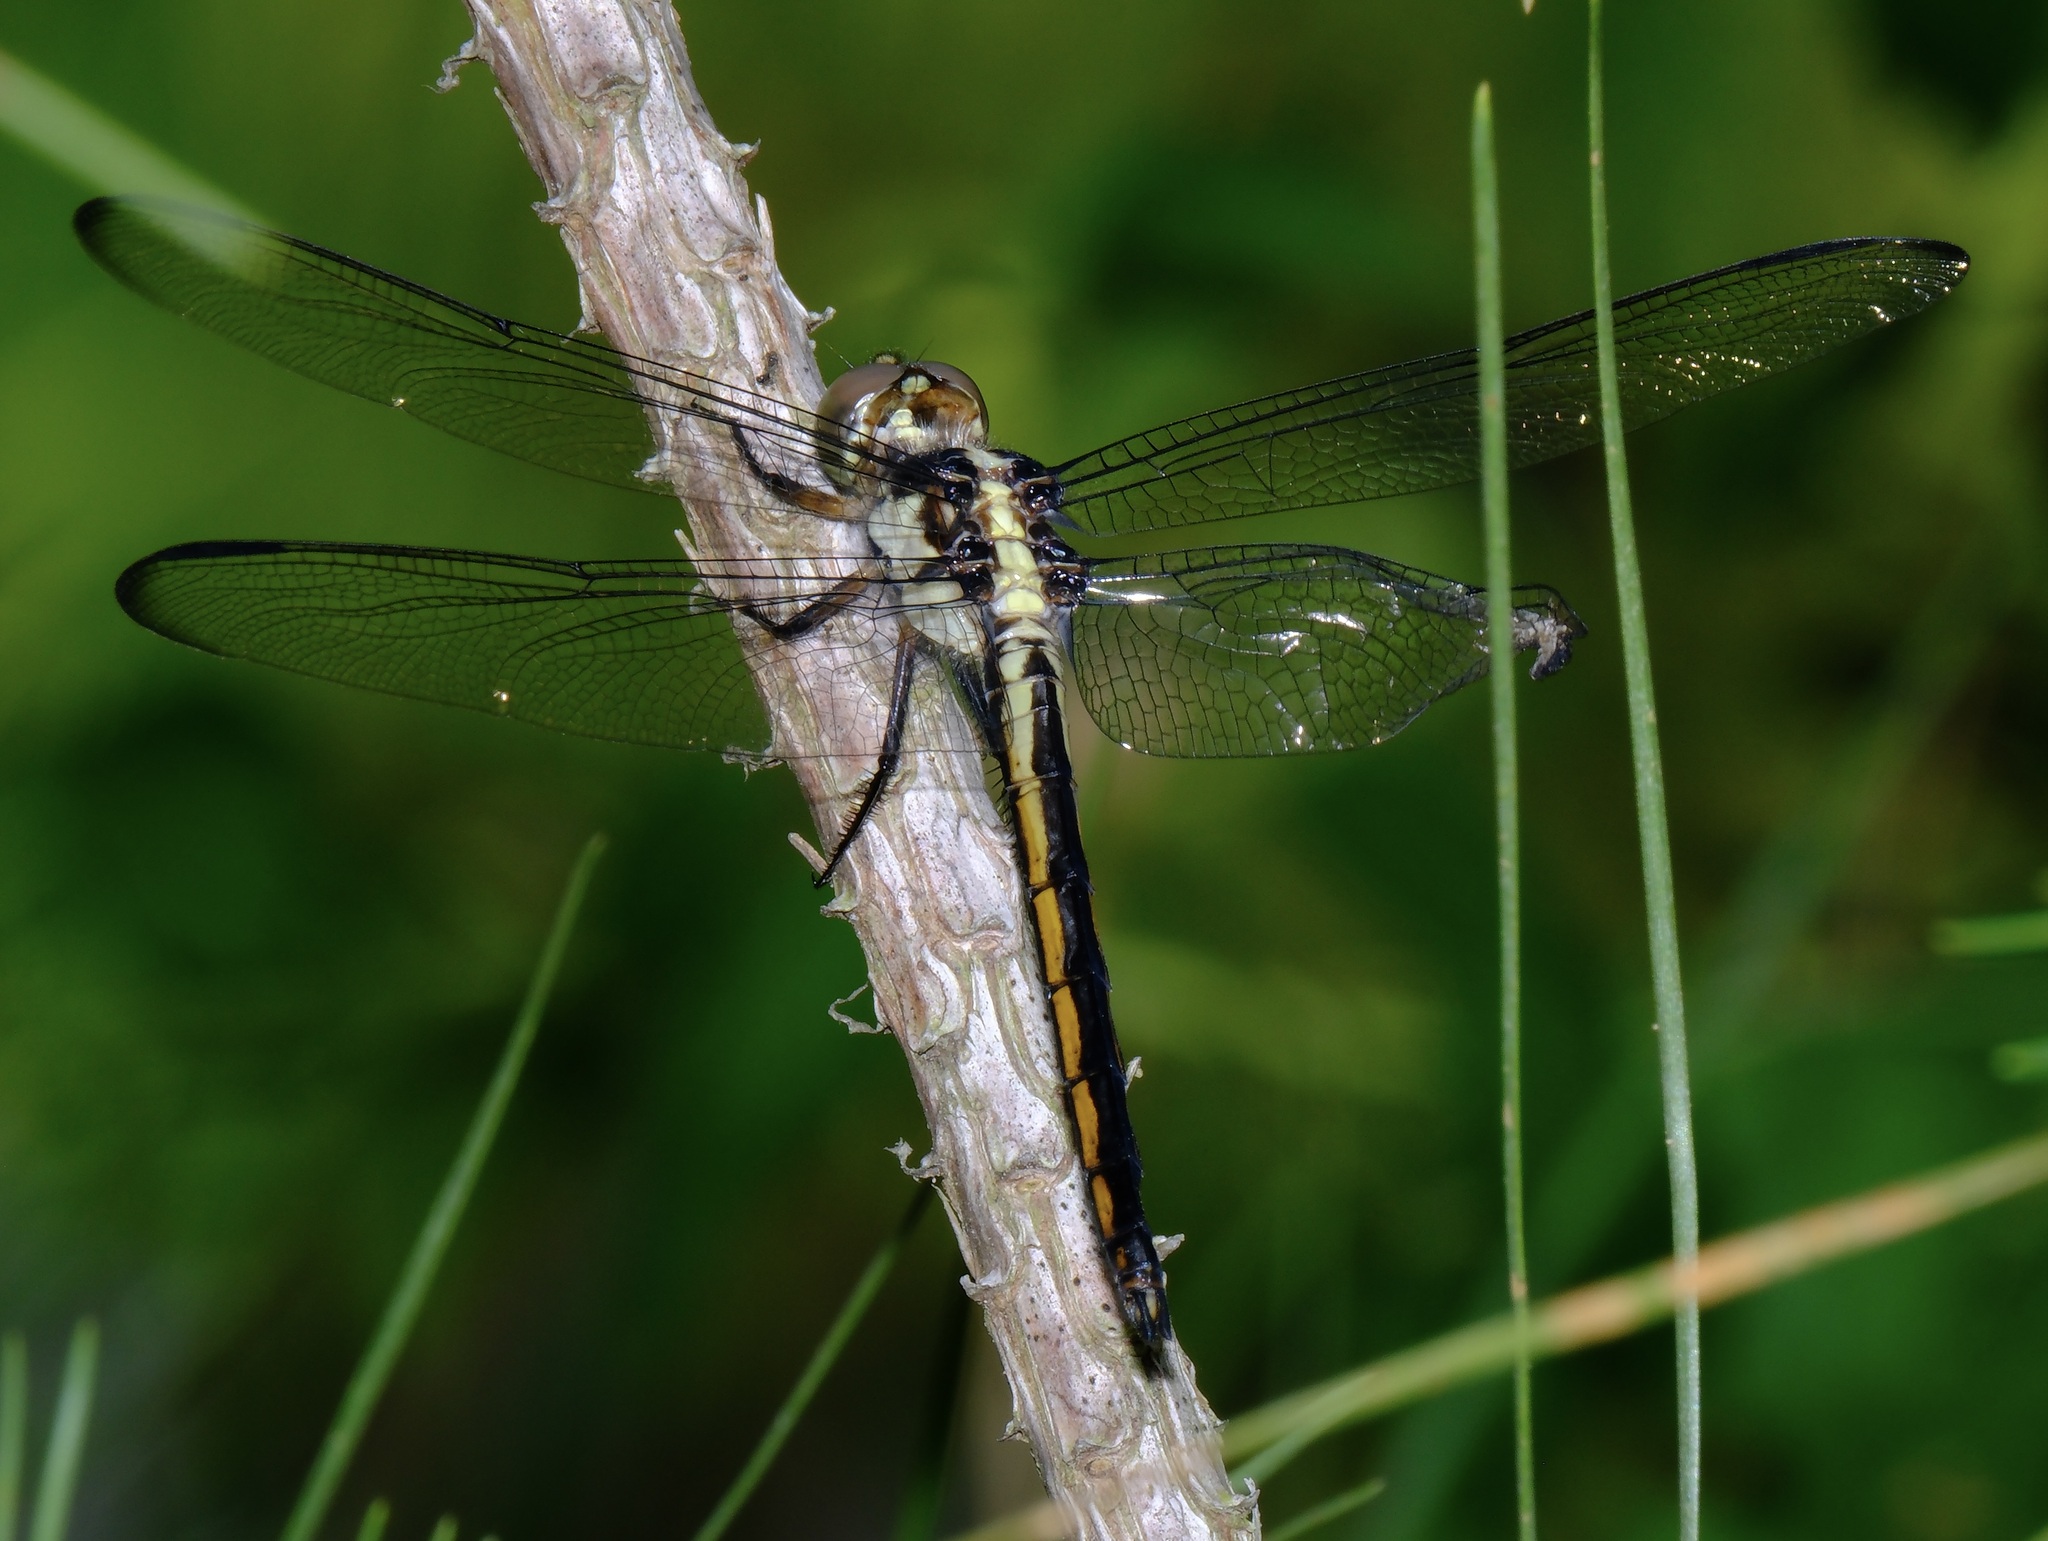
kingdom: Animalia
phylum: Arthropoda
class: Insecta
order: Odonata
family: Libellulidae
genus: Libellula
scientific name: Libellula incesta
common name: Slaty skimmer
